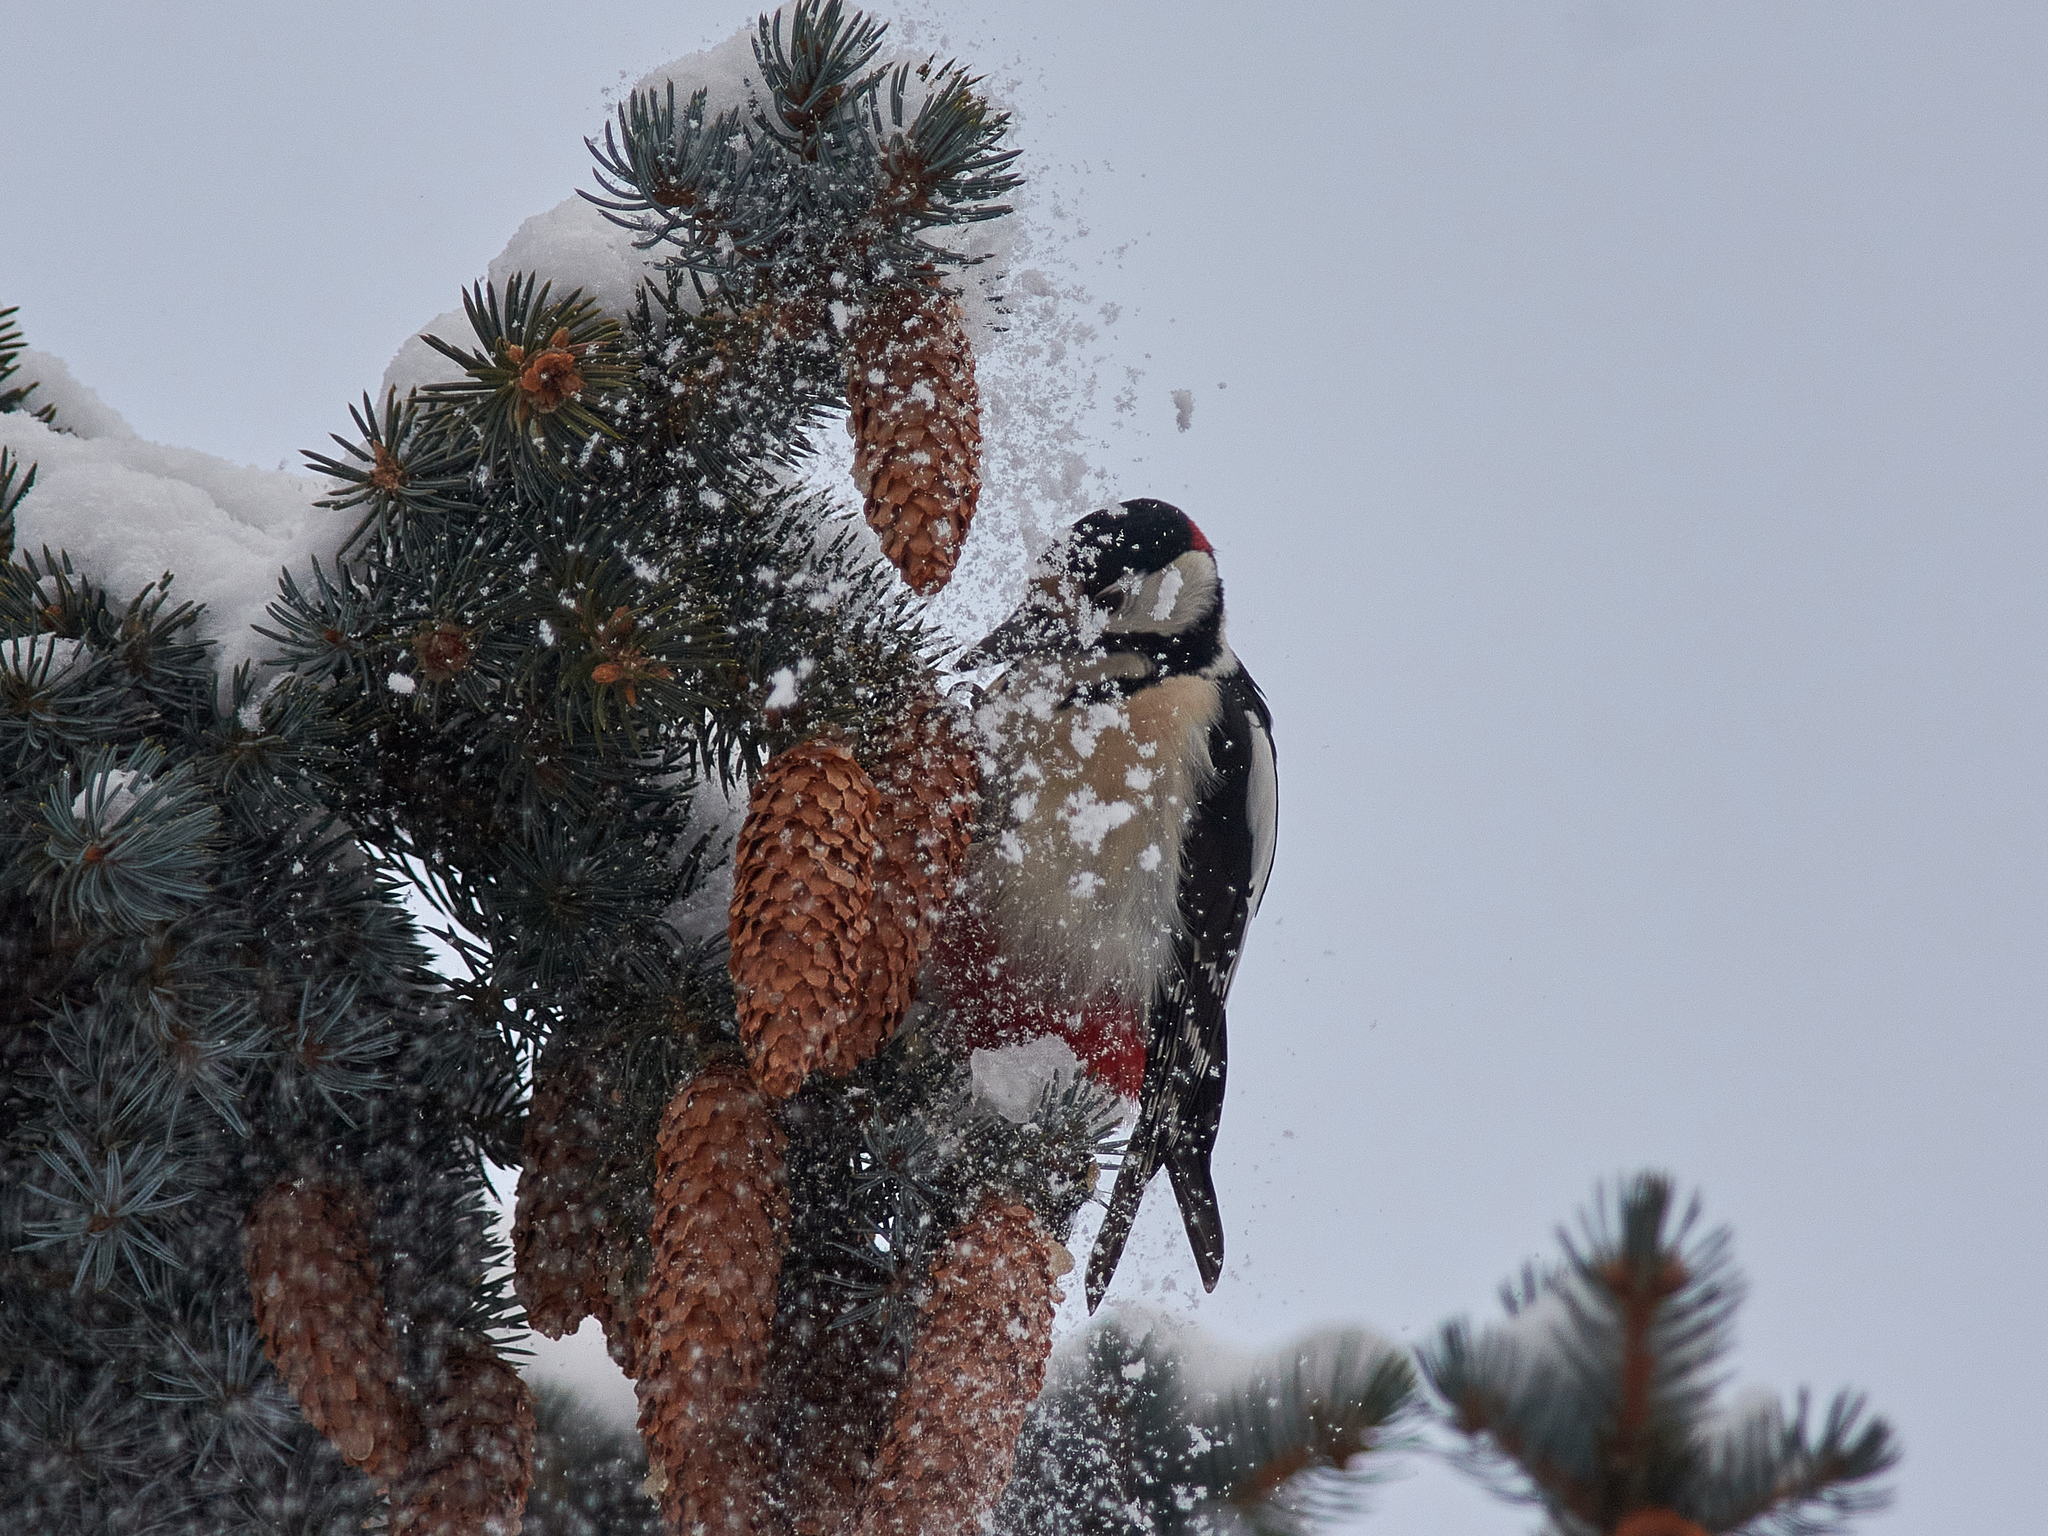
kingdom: Animalia
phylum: Chordata
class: Aves
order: Piciformes
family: Picidae
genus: Dendrocopos
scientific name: Dendrocopos major
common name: Great spotted woodpecker
